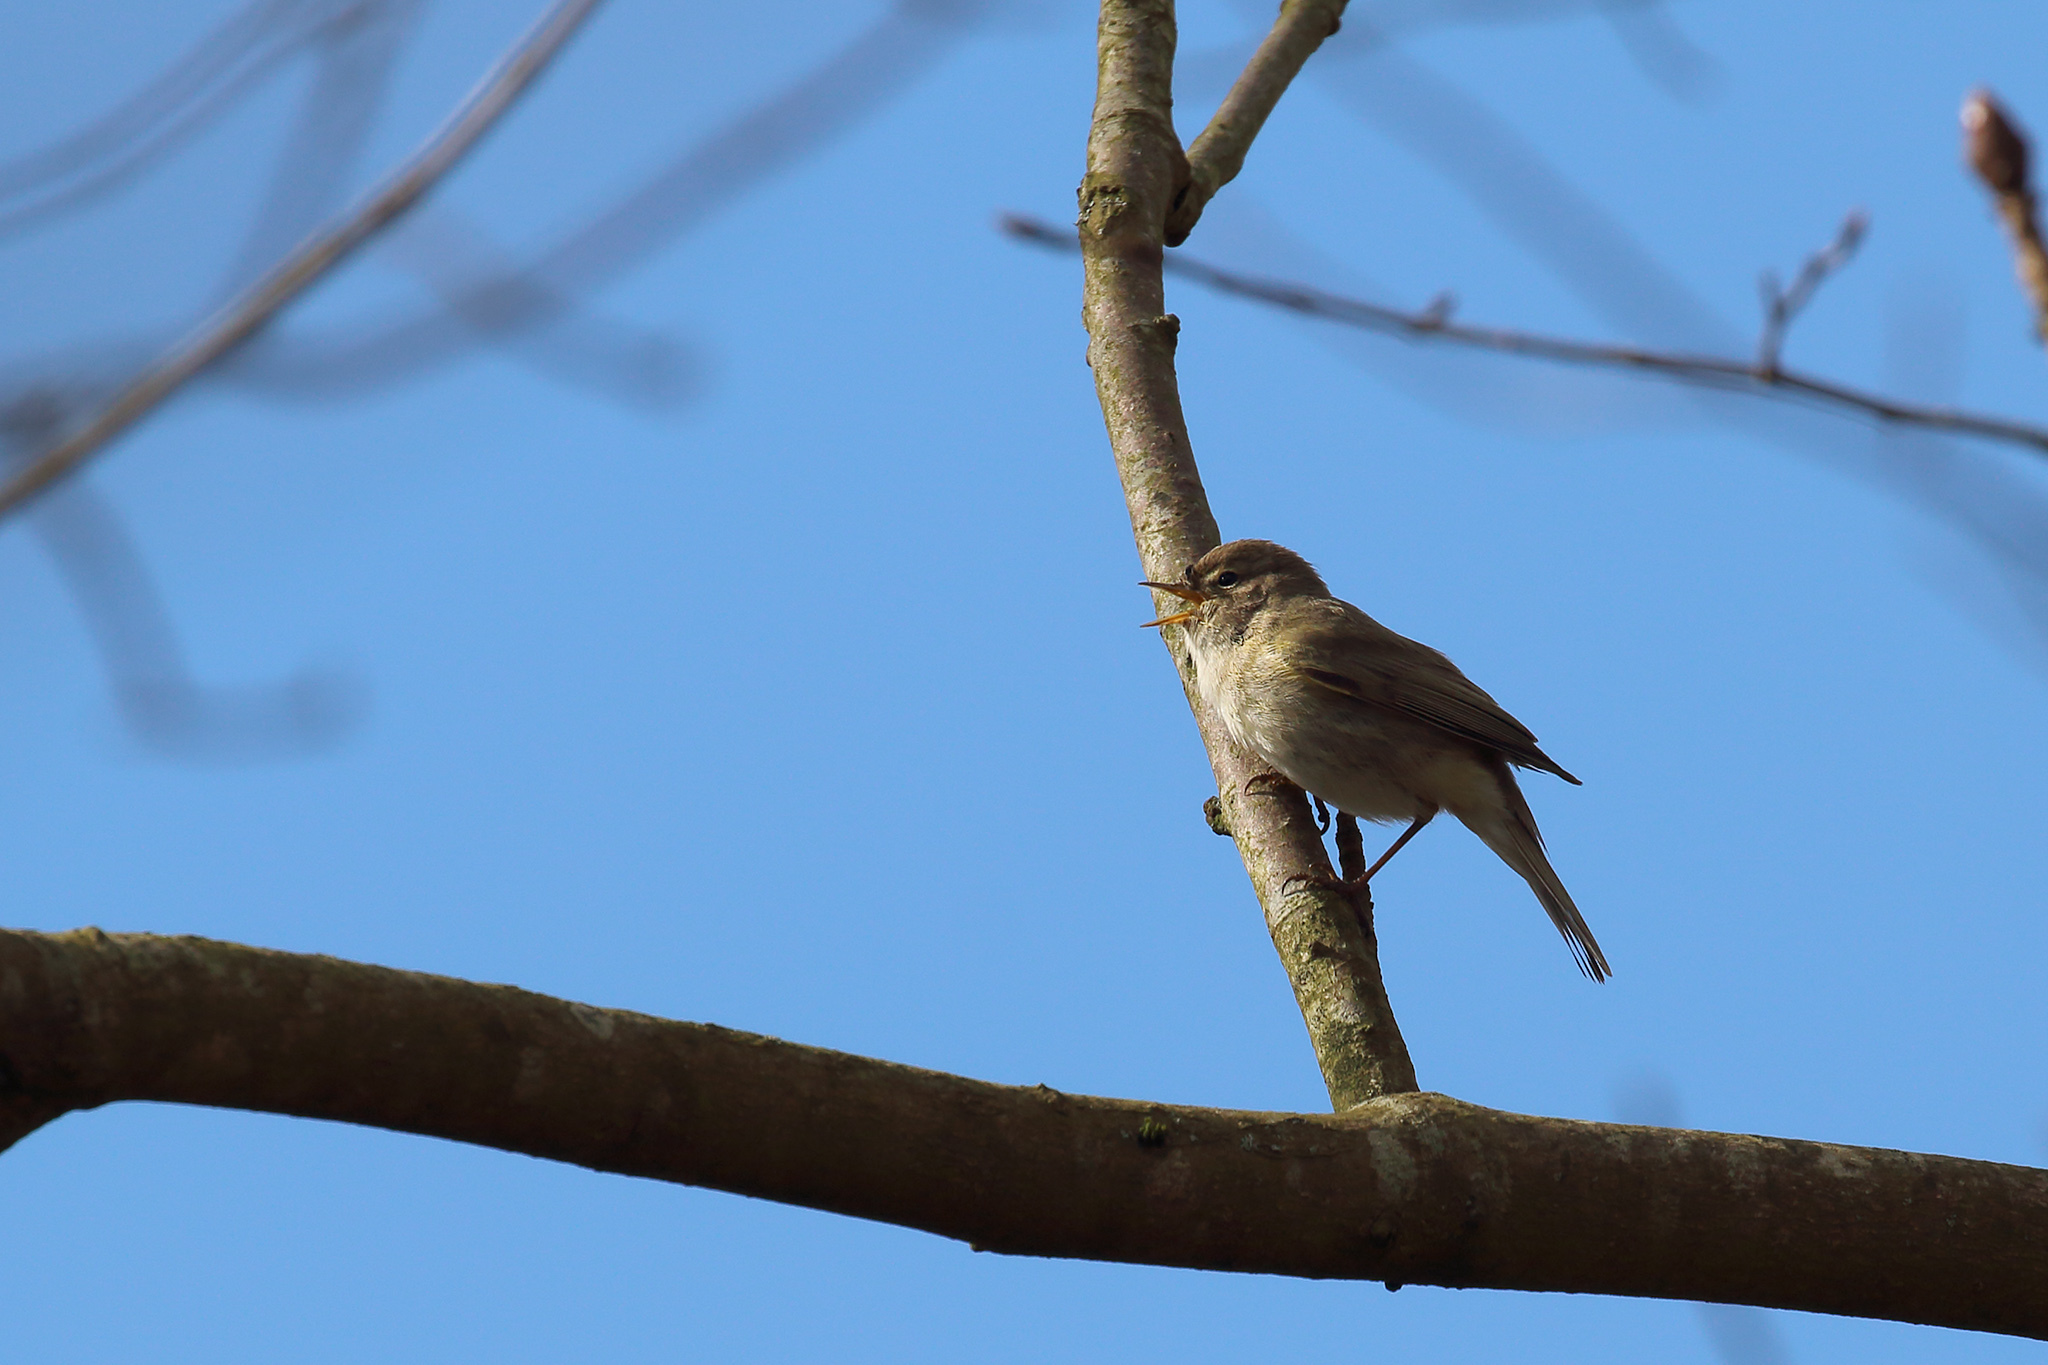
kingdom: Animalia
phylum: Chordata
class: Aves
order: Passeriformes
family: Phylloscopidae
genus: Phylloscopus
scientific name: Phylloscopus collybita
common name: Common chiffchaff
